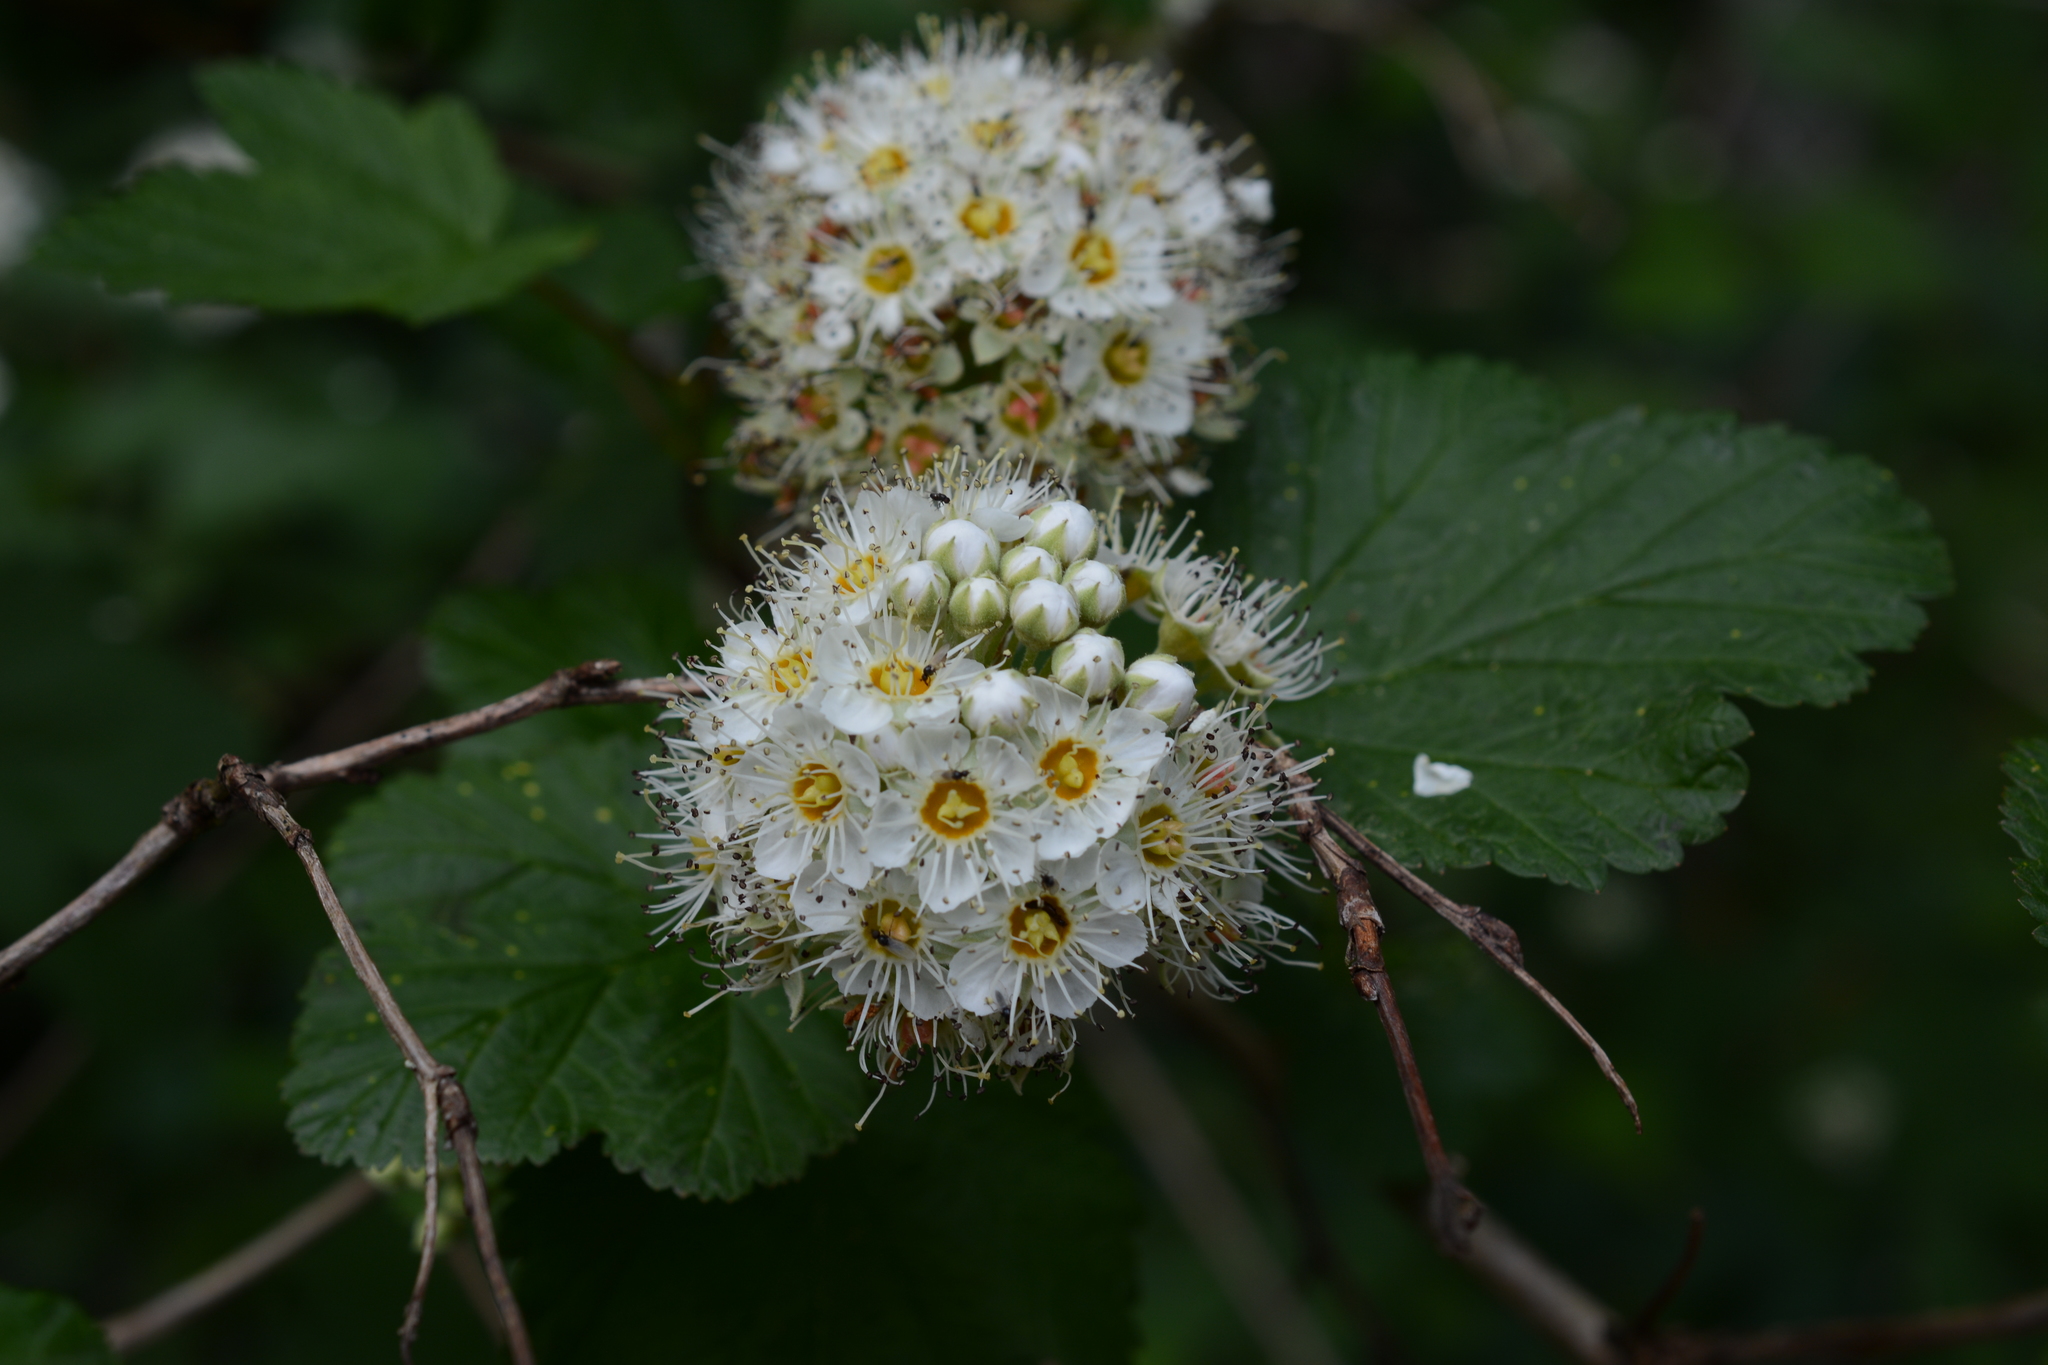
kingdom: Plantae
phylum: Tracheophyta
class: Magnoliopsida
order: Rosales
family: Rosaceae
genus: Physocarpus
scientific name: Physocarpus capitatus
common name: Pacific ninebark
